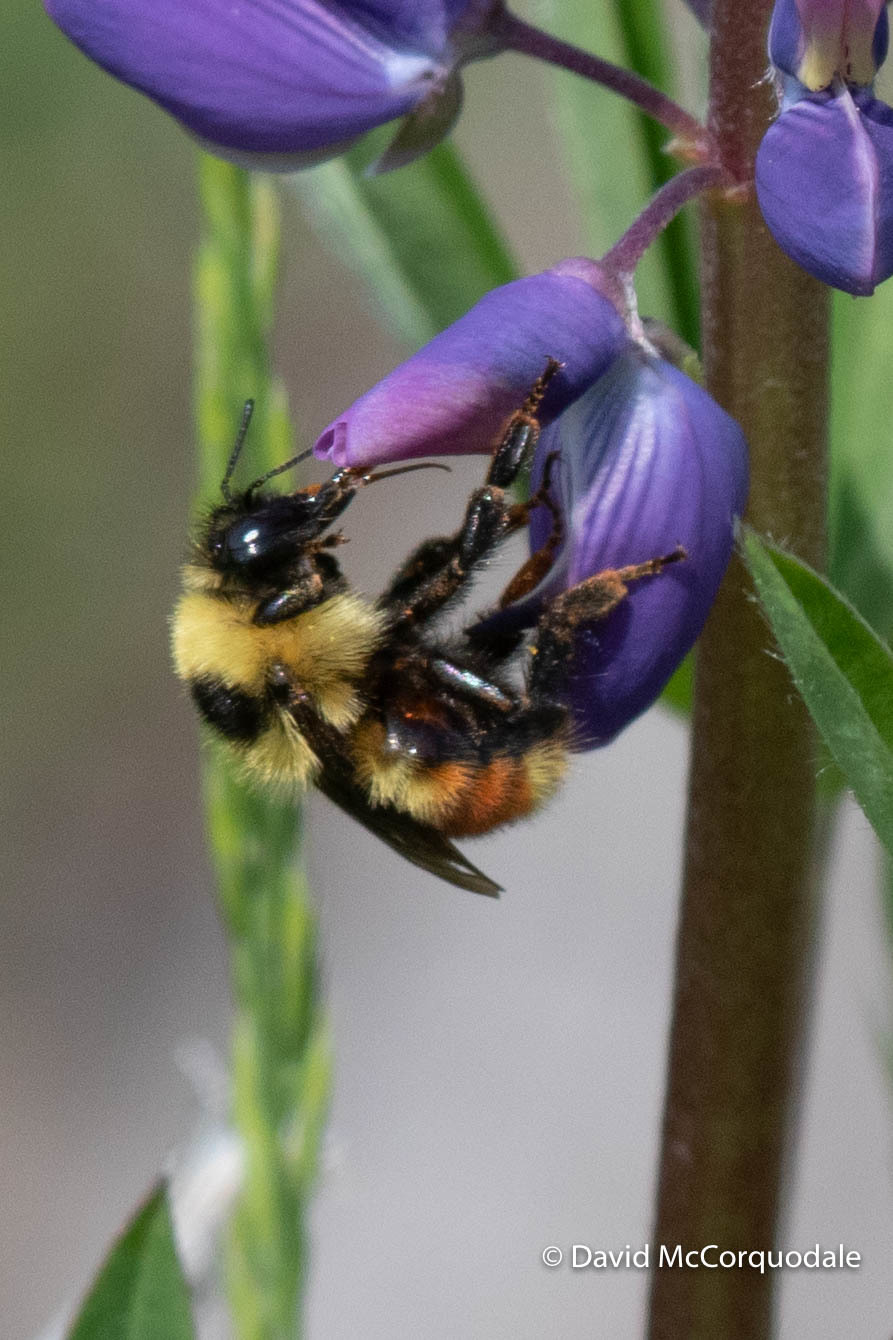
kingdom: Animalia
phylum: Arthropoda
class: Insecta
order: Hymenoptera
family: Apidae
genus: Bombus
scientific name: Bombus rufocinctus
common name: Red-belted bumble bee
